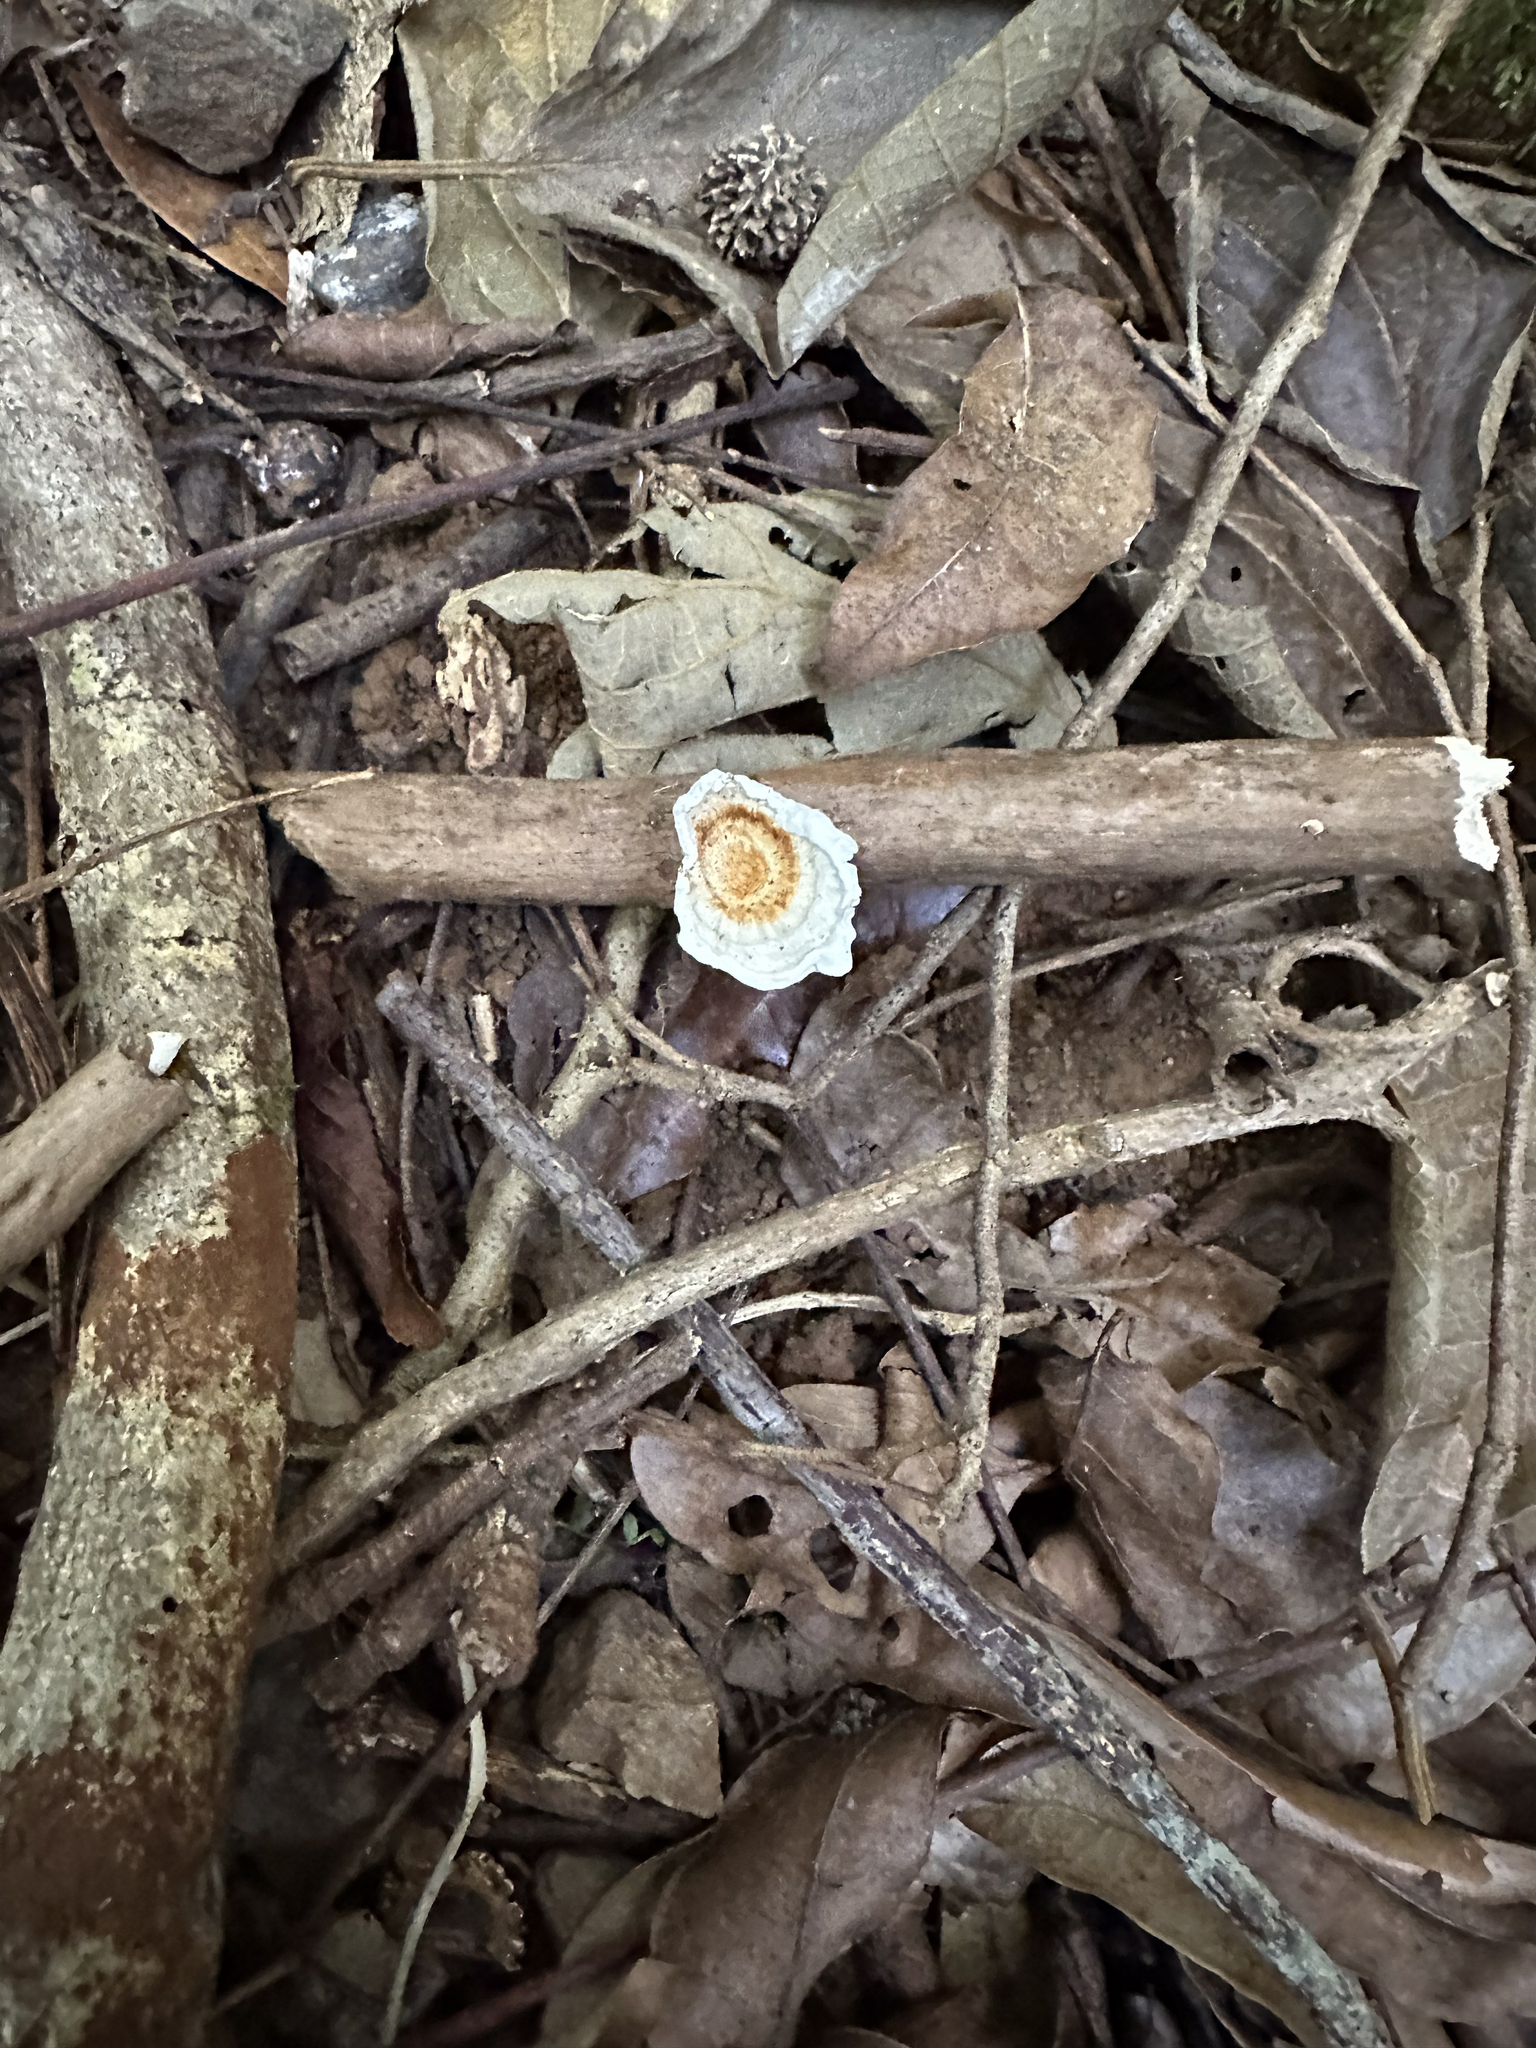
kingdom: Fungi
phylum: Basidiomycota
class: Agaricomycetes
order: Polyporales
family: Polyporaceae
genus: Microporus
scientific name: Microporus xanthopus
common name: Yellow-stemmed micropore
